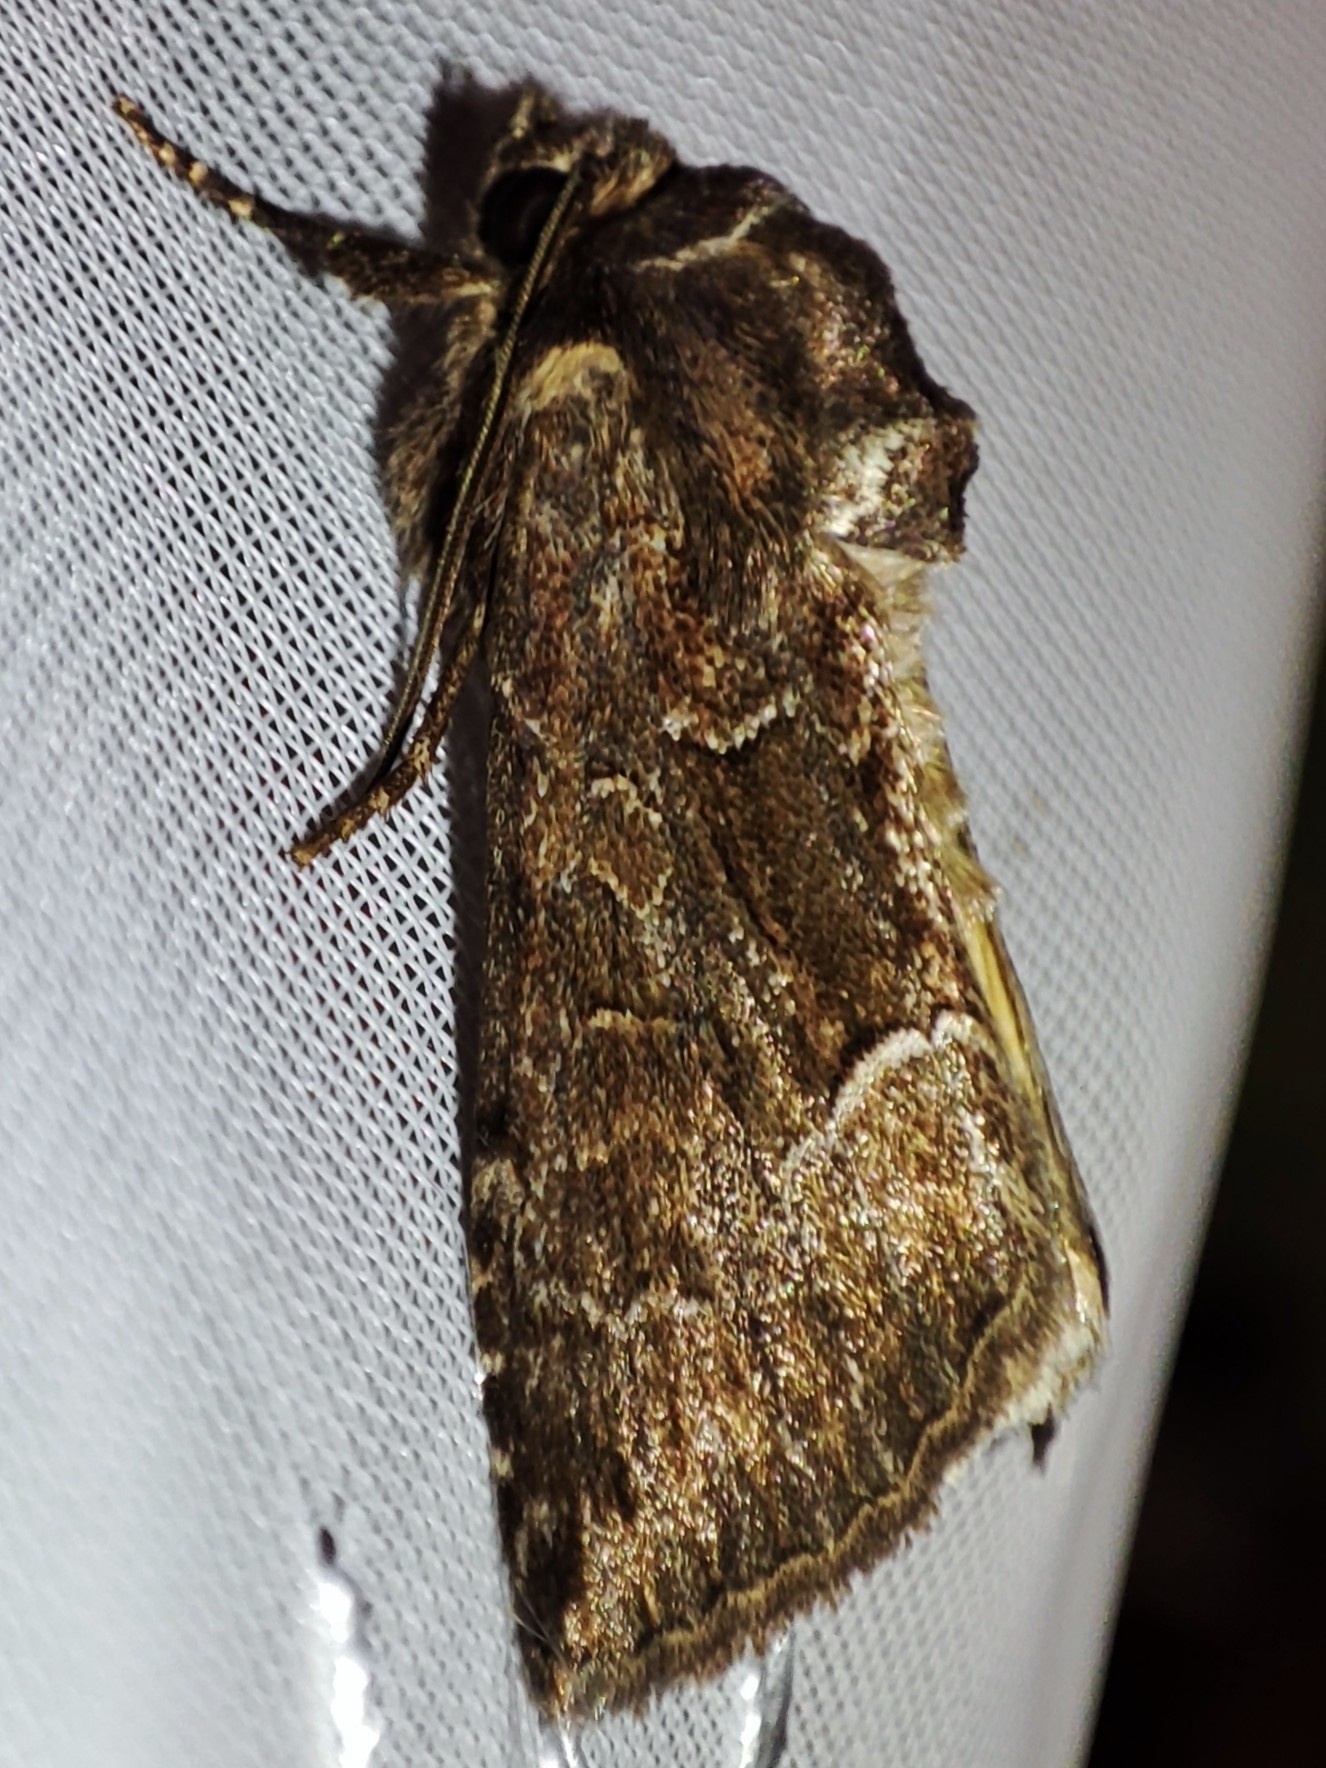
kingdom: Animalia
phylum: Arthropoda
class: Insecta
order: Lepidoptera
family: Noctuidae
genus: Thalpophila
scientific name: Thalpophila matura
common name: Straw underwing
